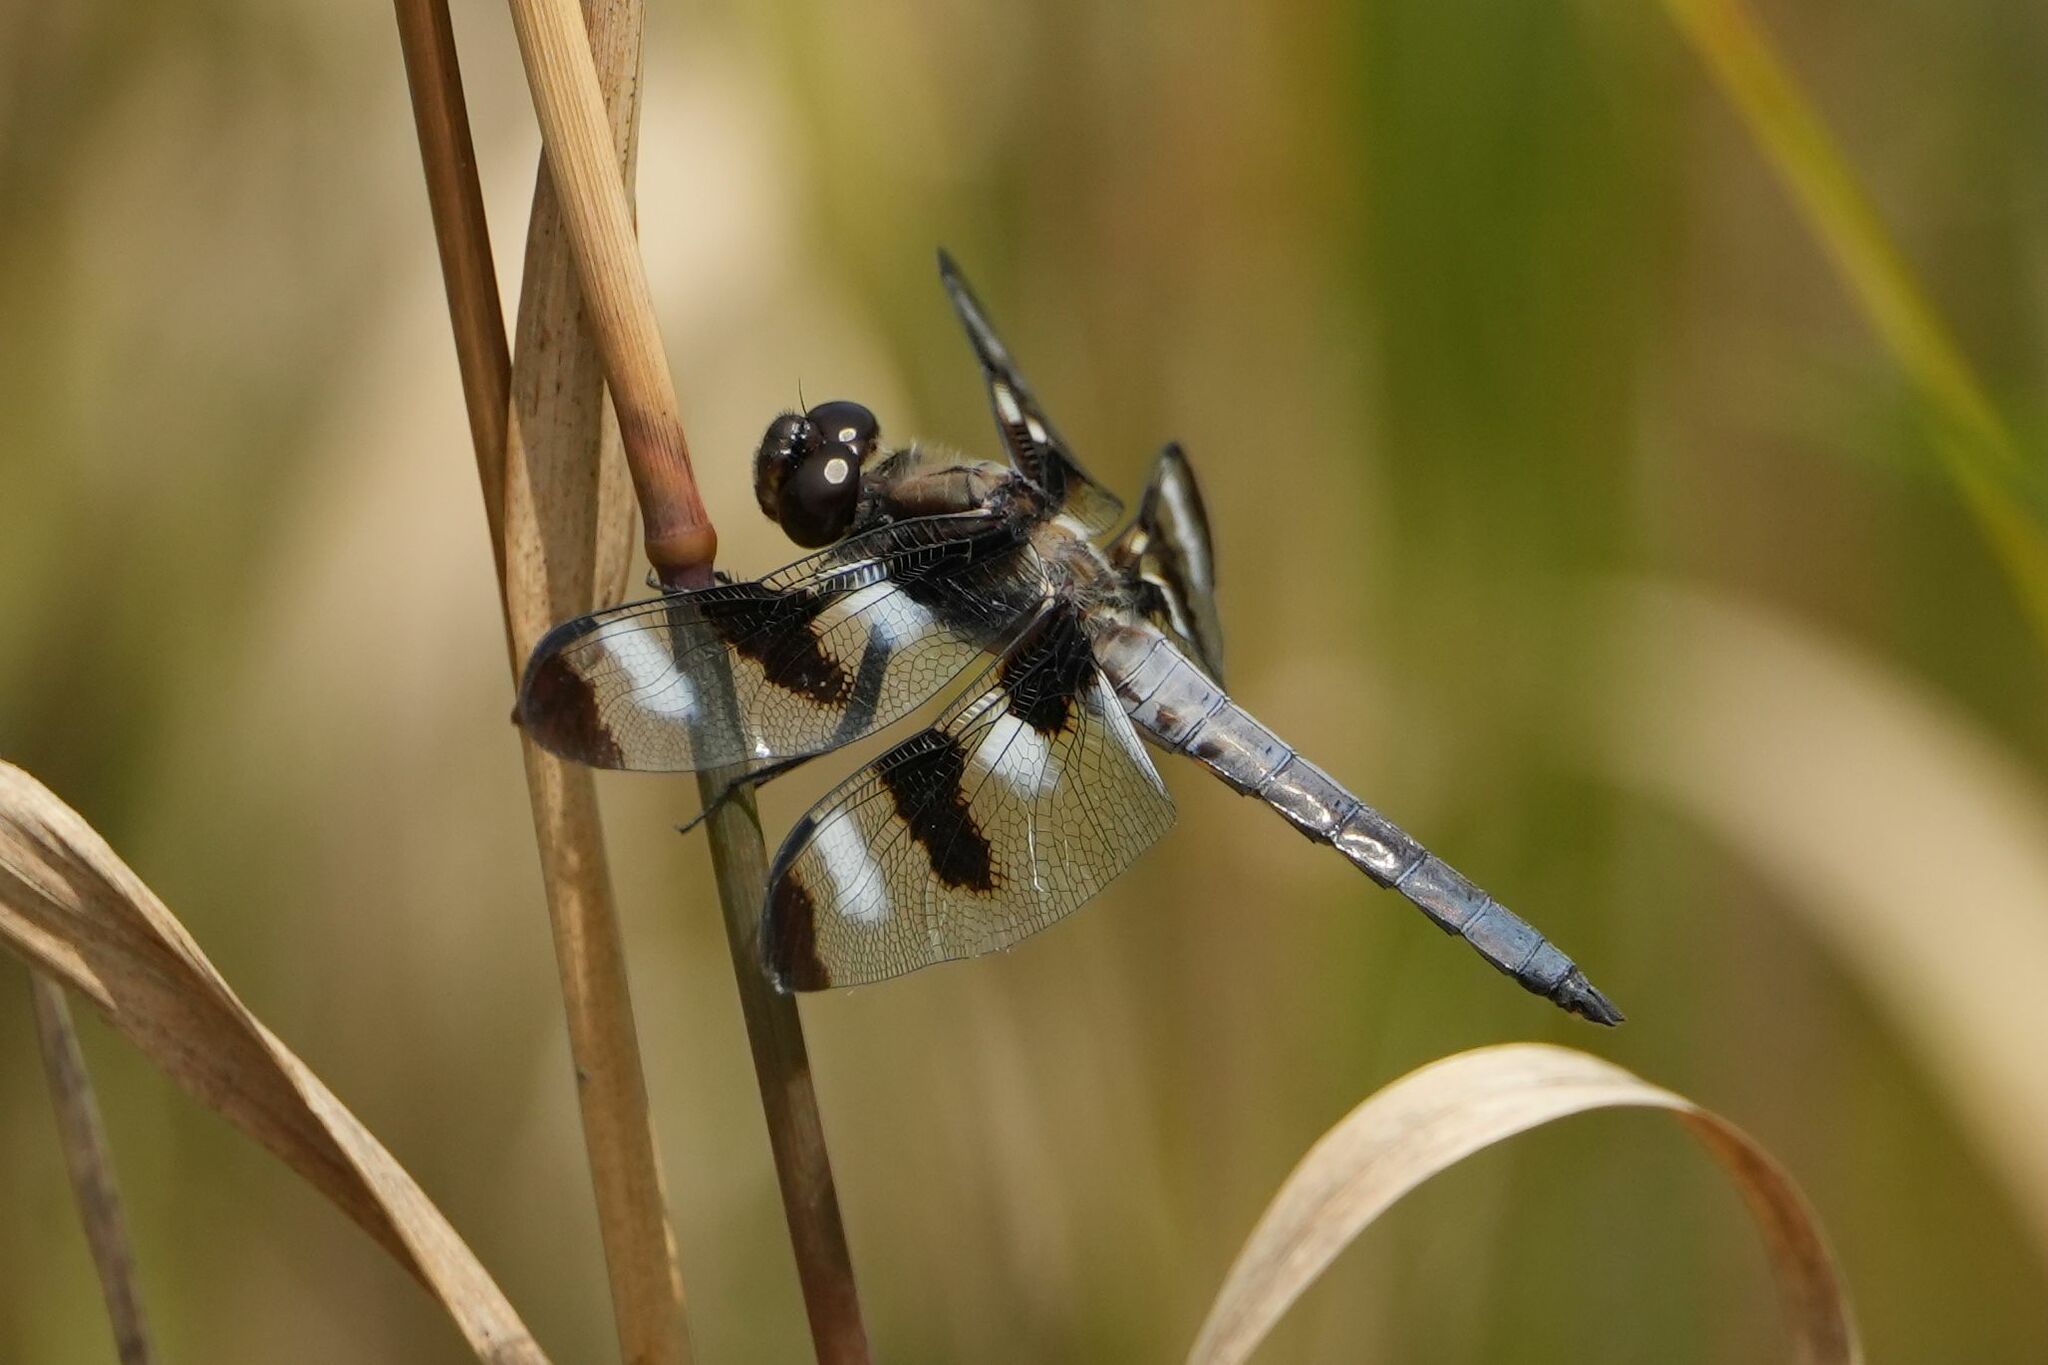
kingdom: Animalia
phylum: Arthropoda
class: Insecta
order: Odonata
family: Libellulidae
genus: Libellula
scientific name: Libellula pulchella
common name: Twelve-spotted skimmer
